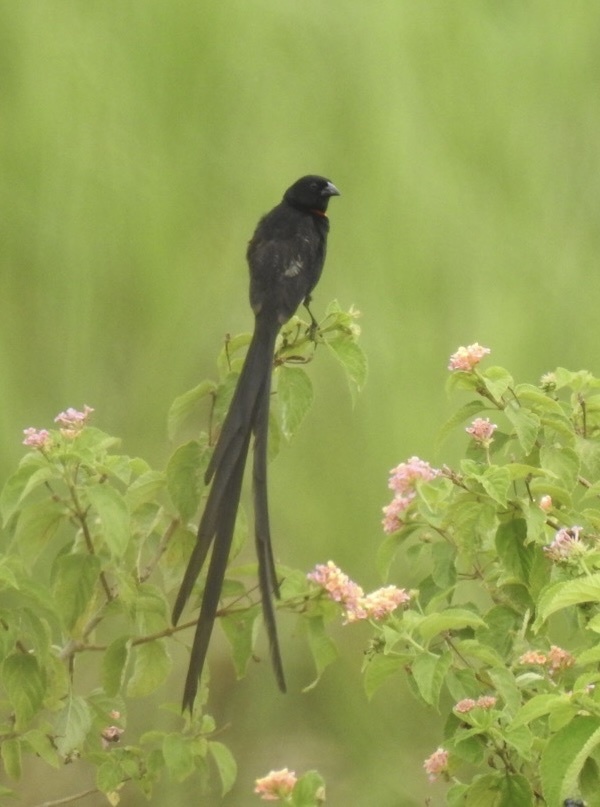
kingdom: Animalia
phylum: Chordata
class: Aves
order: Passeriformes
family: Ploceidae
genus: Euplectes
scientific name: Euplectes ardens
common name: Red-collared widowbird
